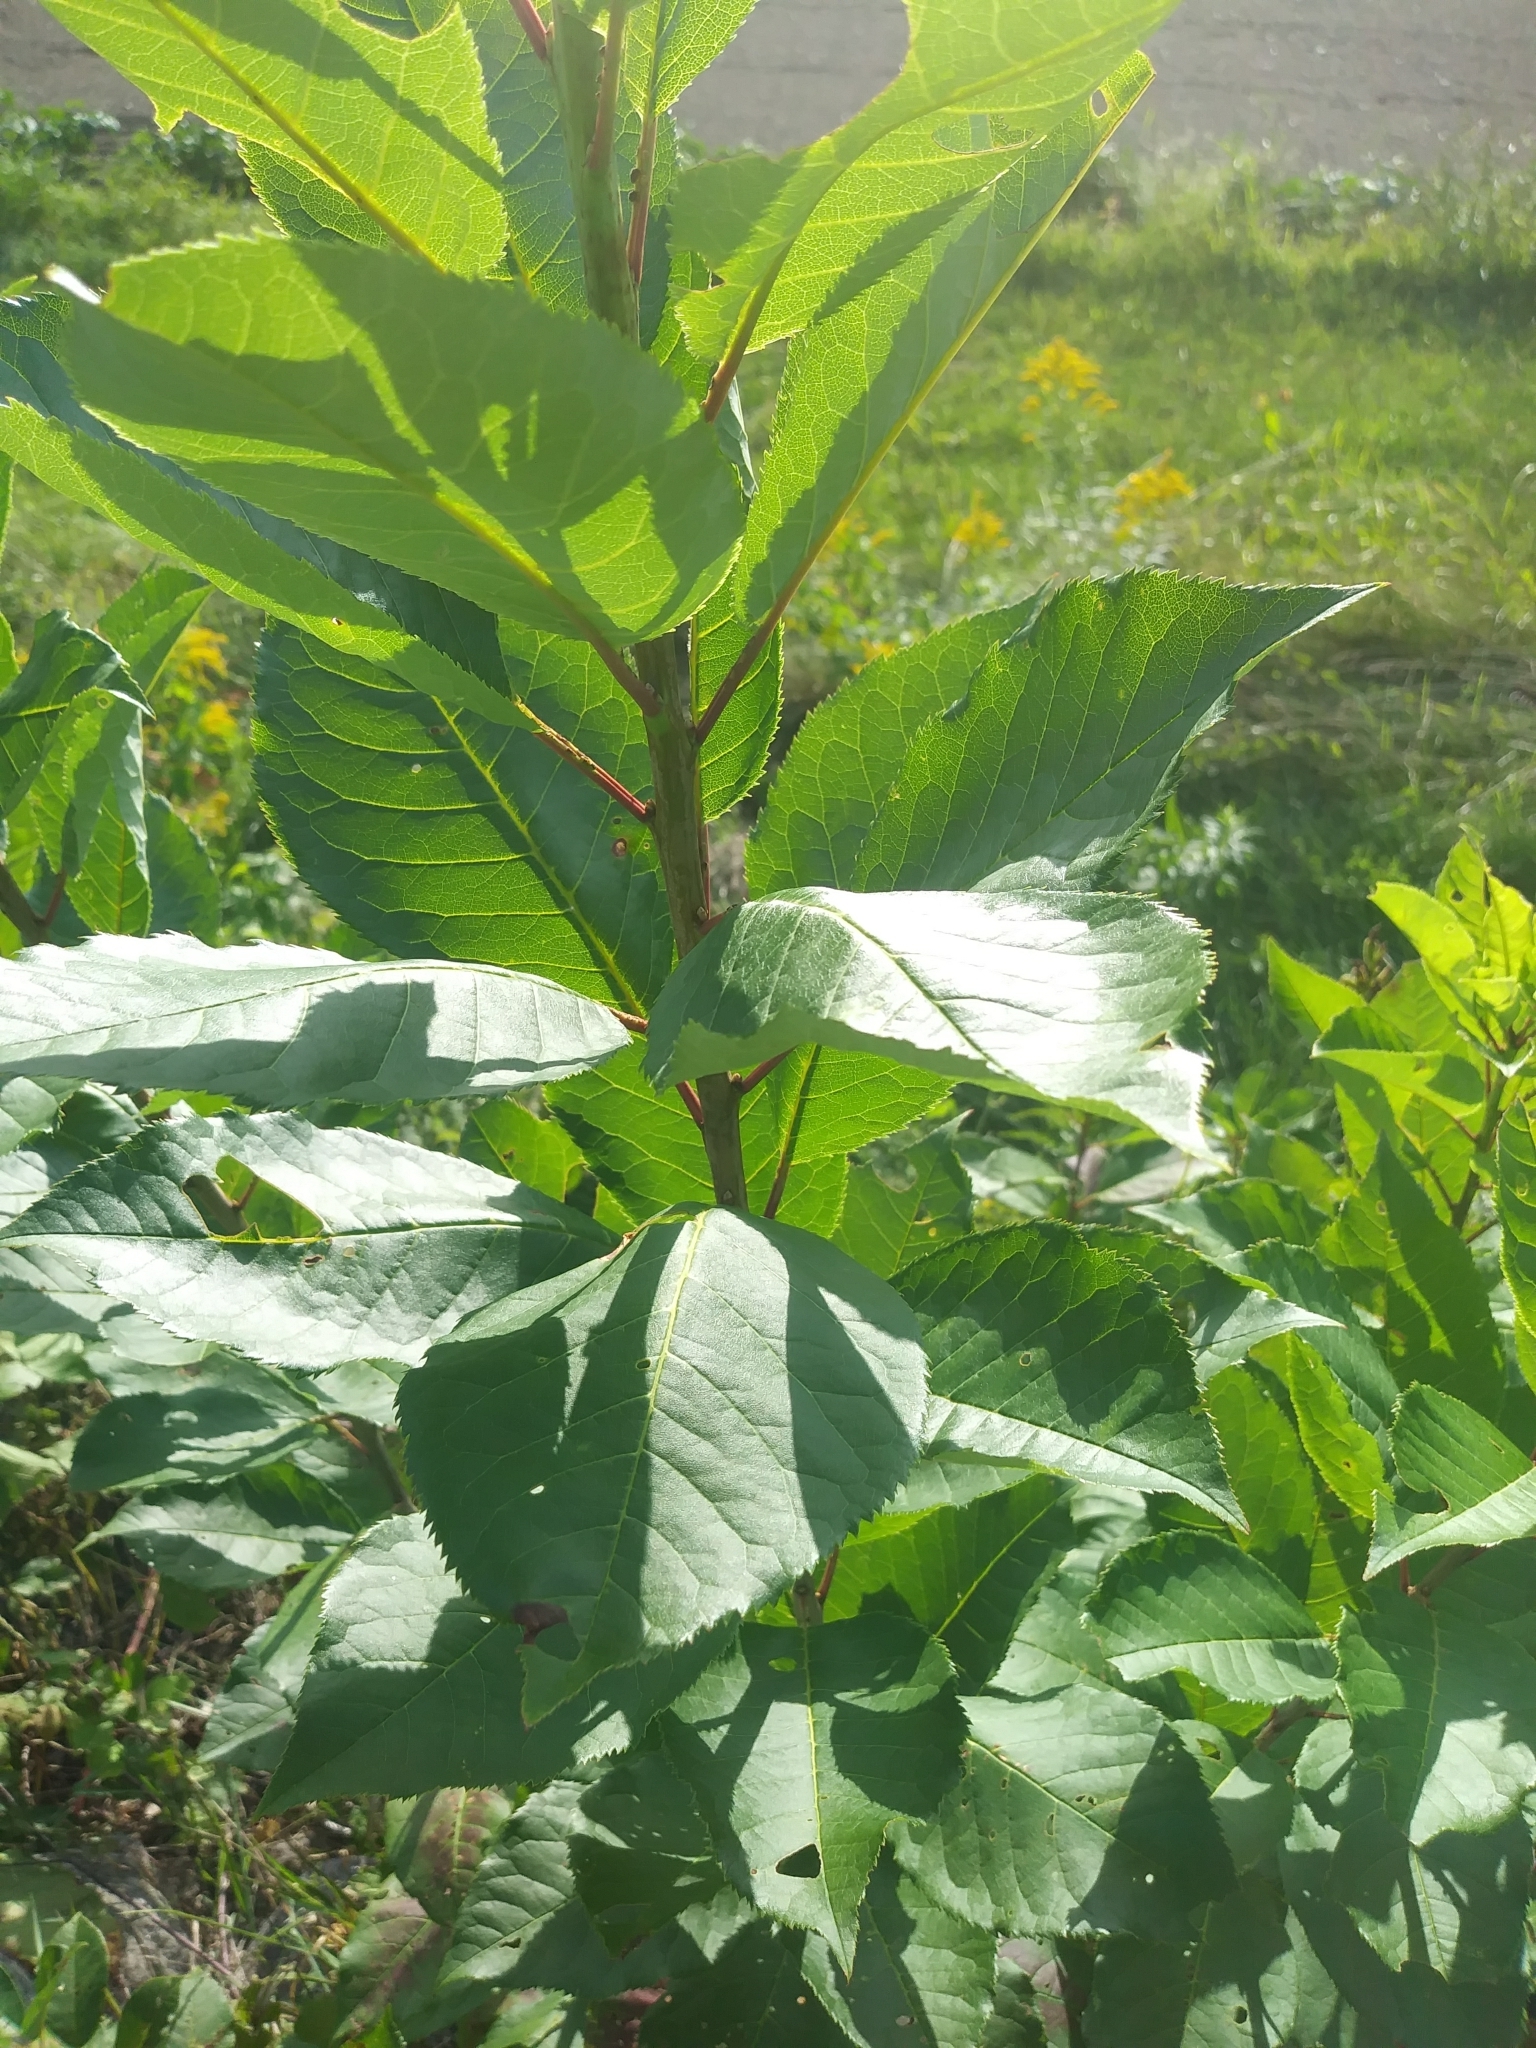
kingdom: Plantae
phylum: Tracheophyta
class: Magnoliopsida
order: Rosales
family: Rosaceae
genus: Prunus
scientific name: Prunus virginiana
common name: Chokecherry
